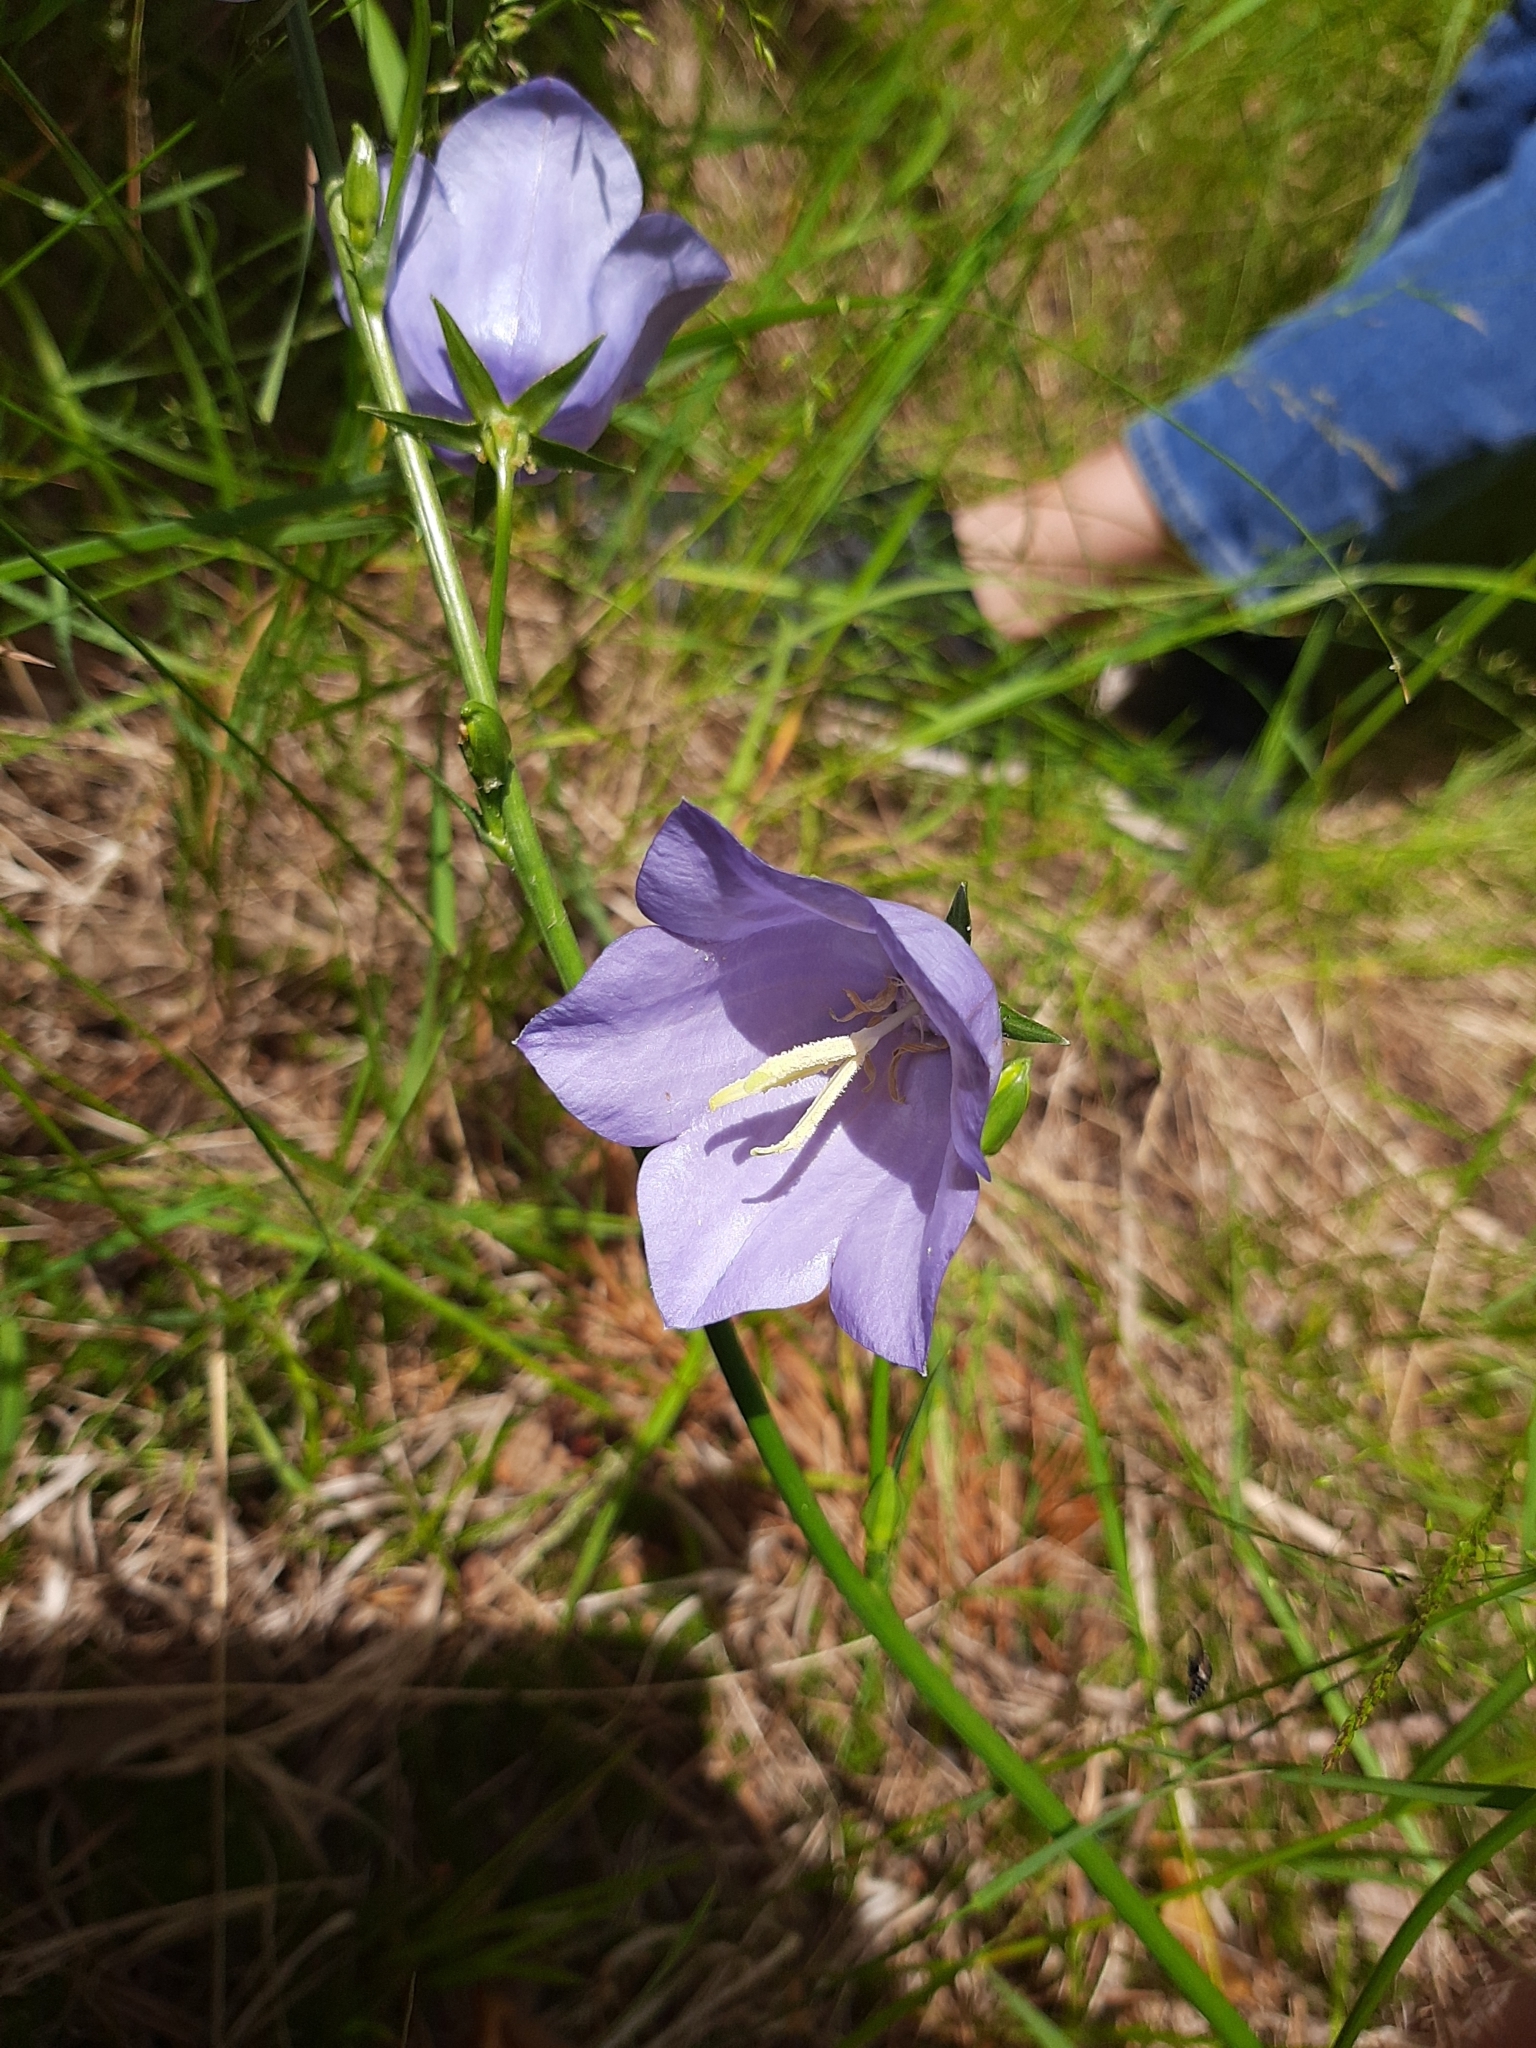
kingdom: Plantae
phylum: Tracheophyta
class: Magnoliopsida
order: Asterales
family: Campanulaceae
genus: Campanula
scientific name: Campanula persicifolia
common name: Peach-leaved bellflower
